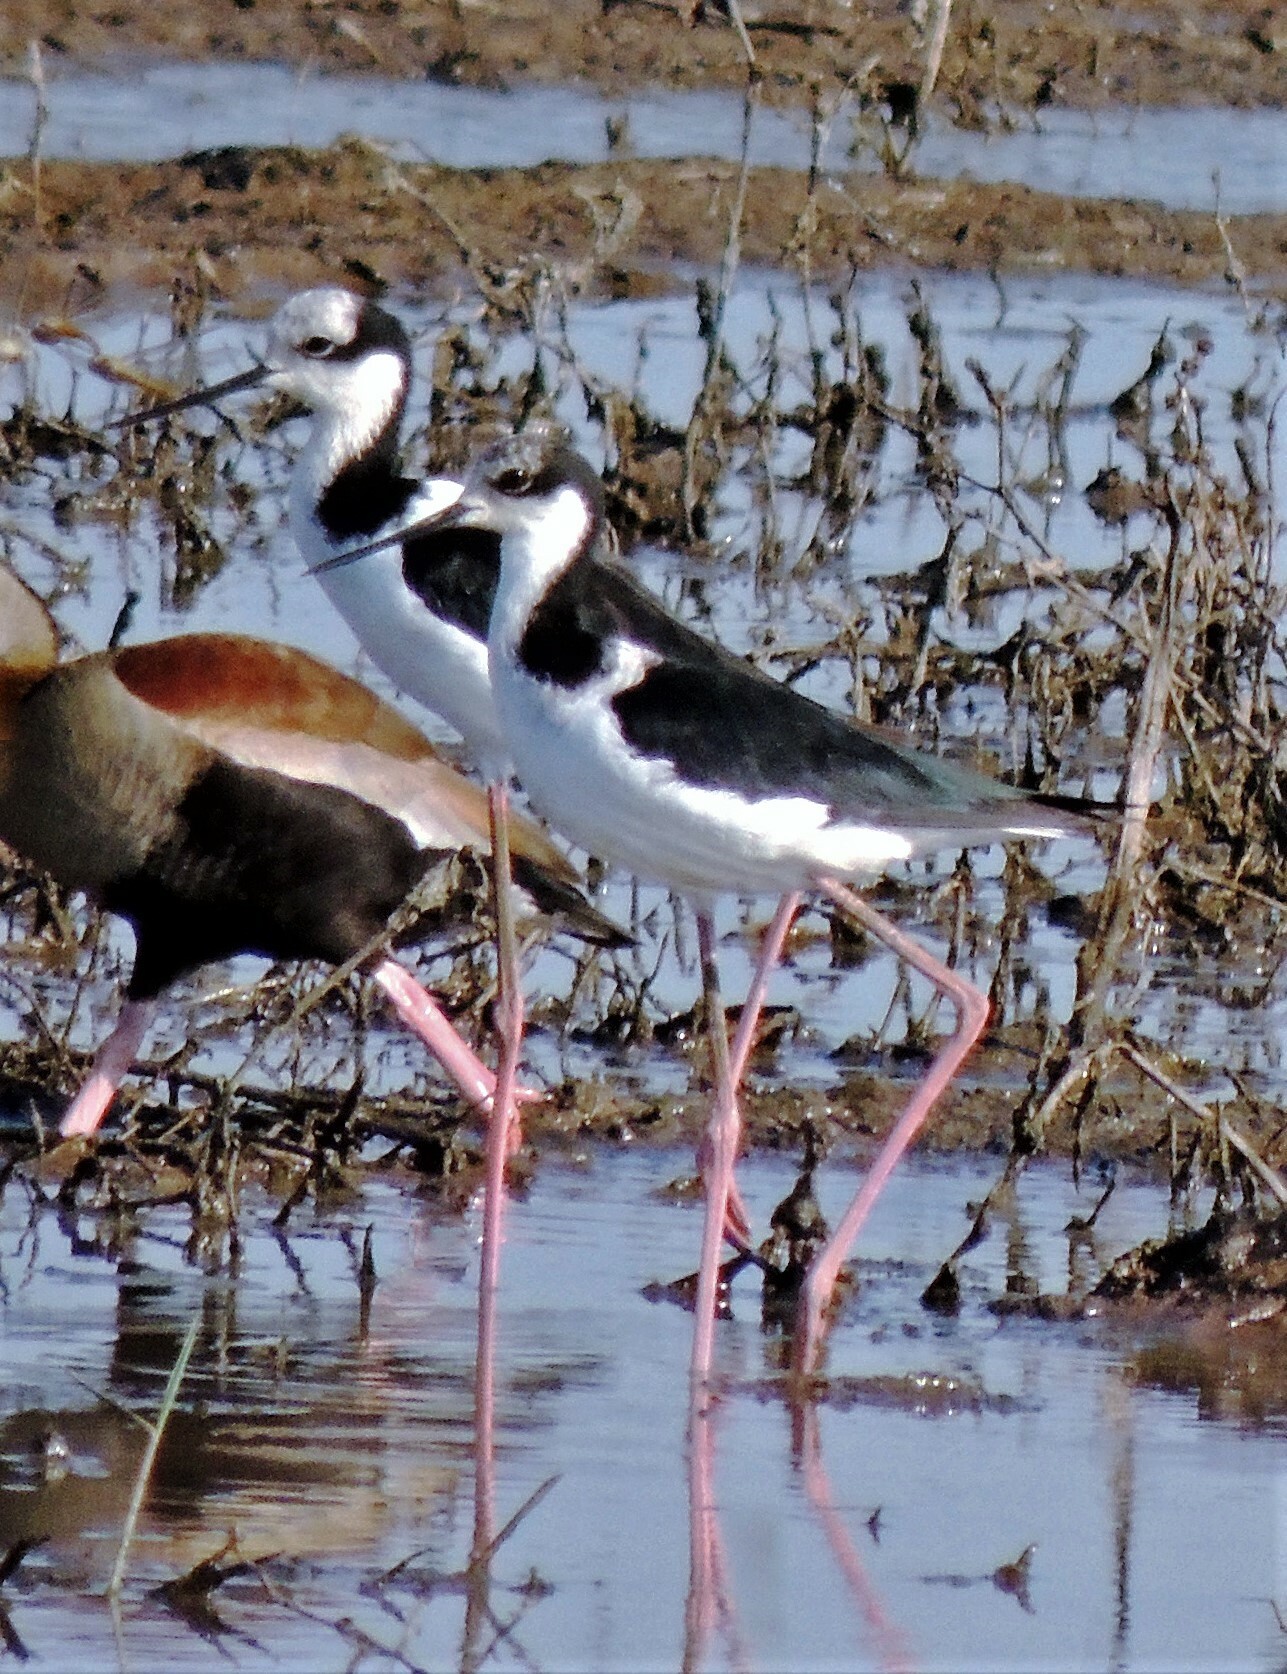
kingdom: Animalia
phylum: Chordata
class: Aves
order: Charadriiformes
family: Recurvirostridae
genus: Himantopus
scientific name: Himantopus mexicanus
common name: Black-necked stilt
